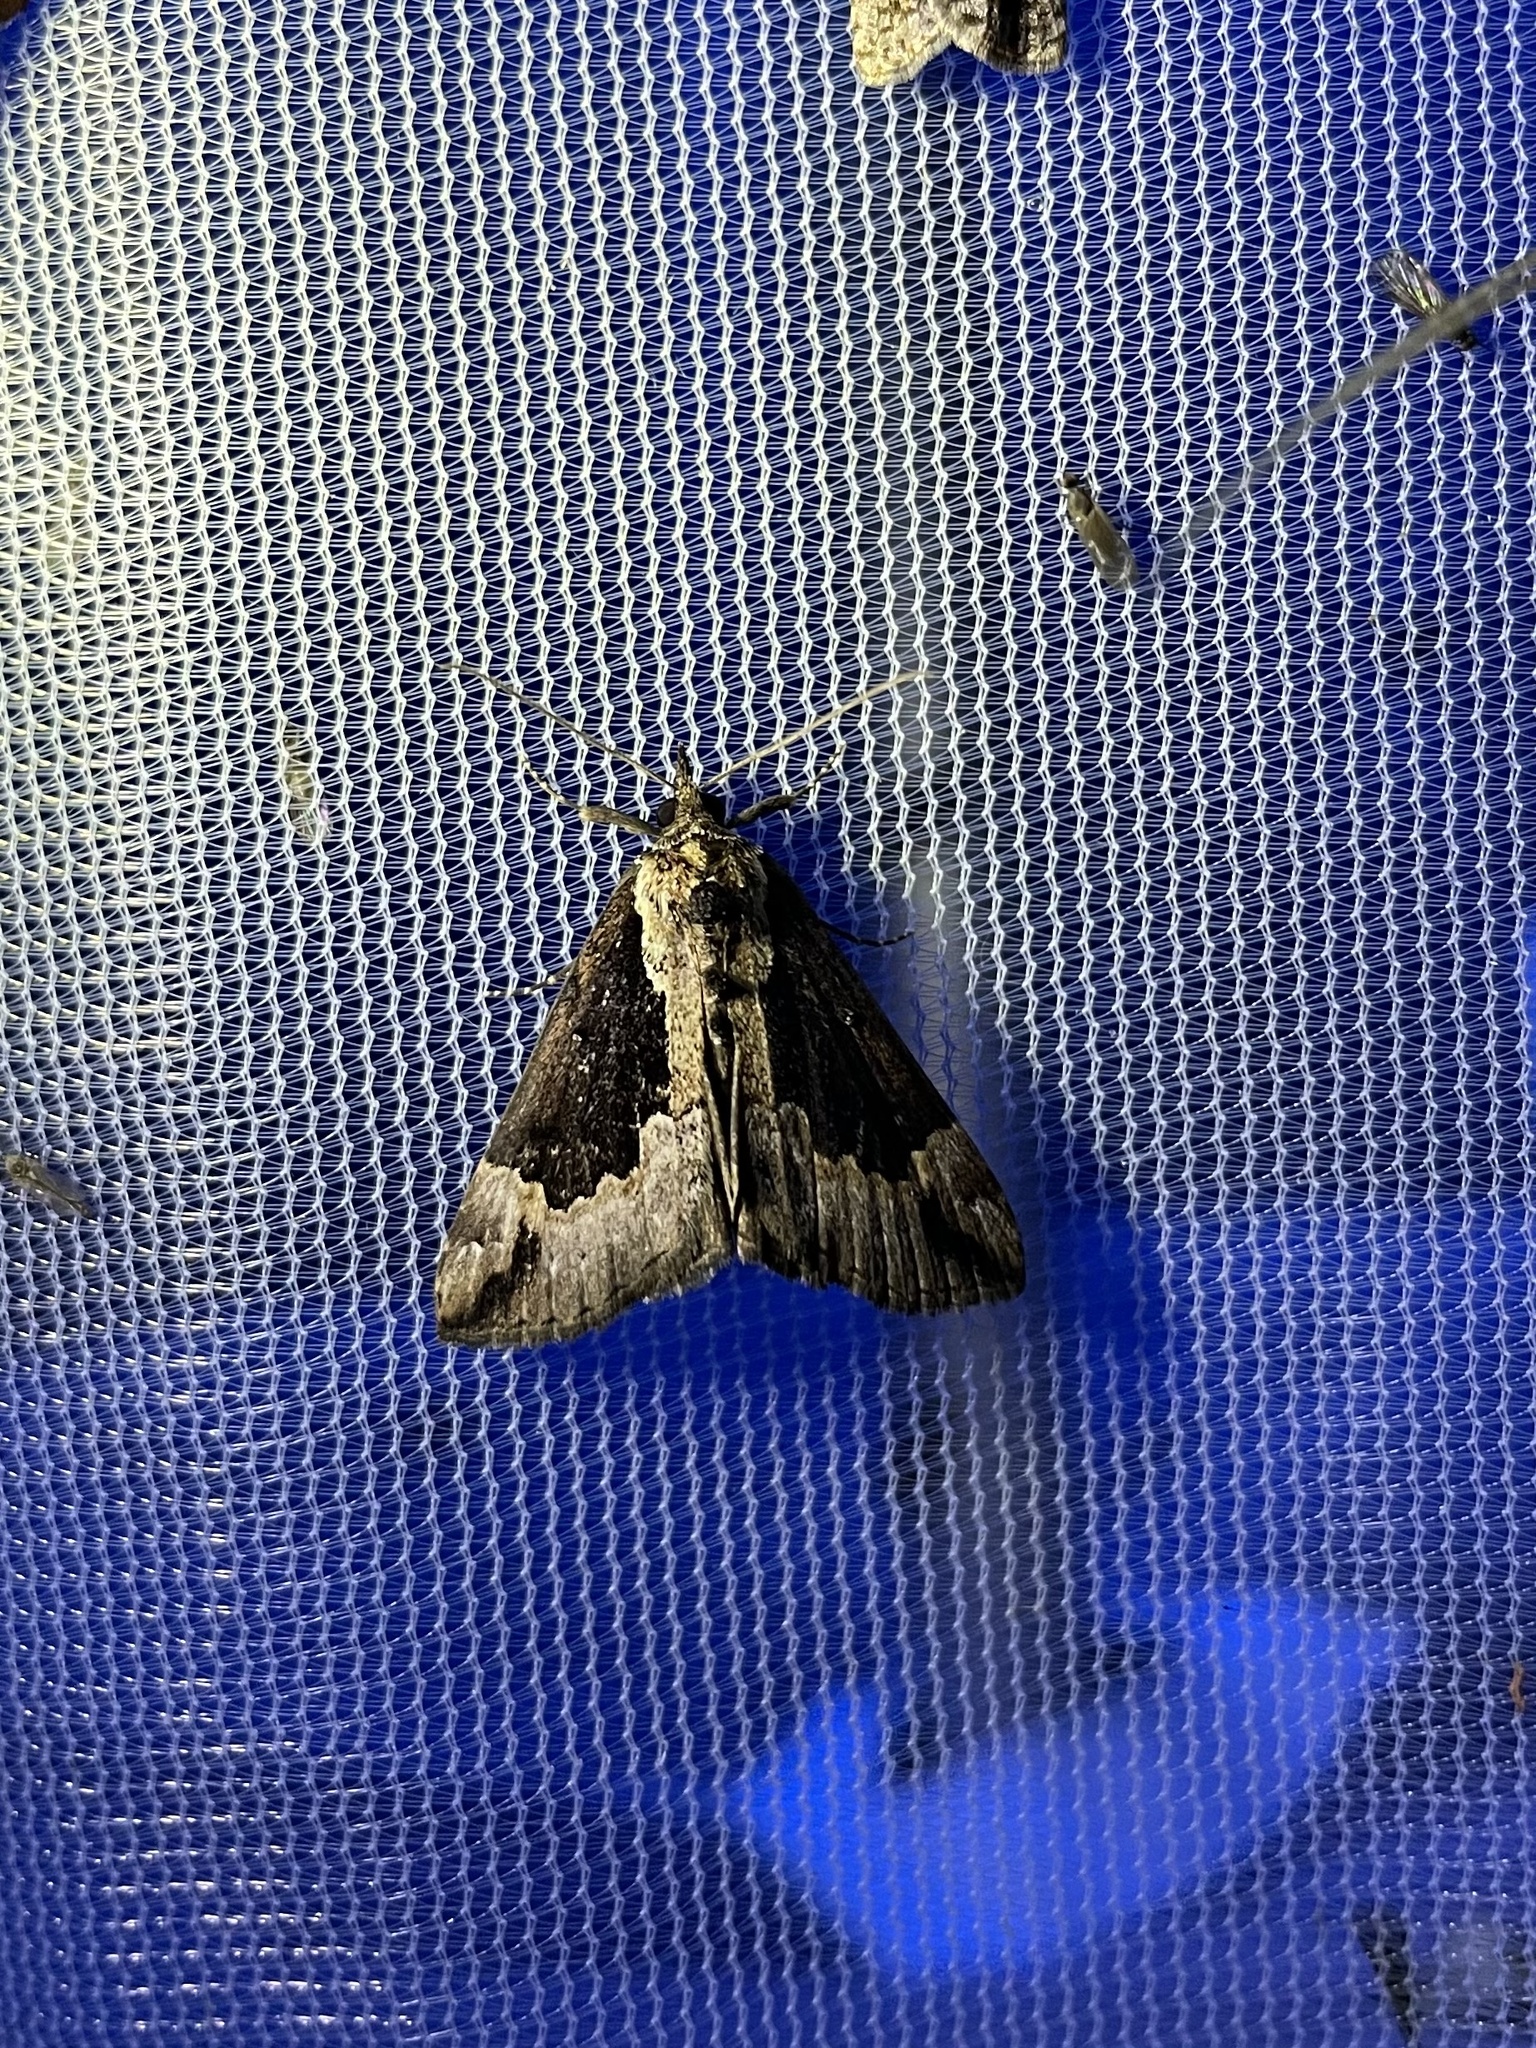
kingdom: Animalia
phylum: Arthropoda
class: Insecta
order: Lepidoptera
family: Erebidae
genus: Hypena
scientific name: Hypena baltimoralis
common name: Baltimore snout
